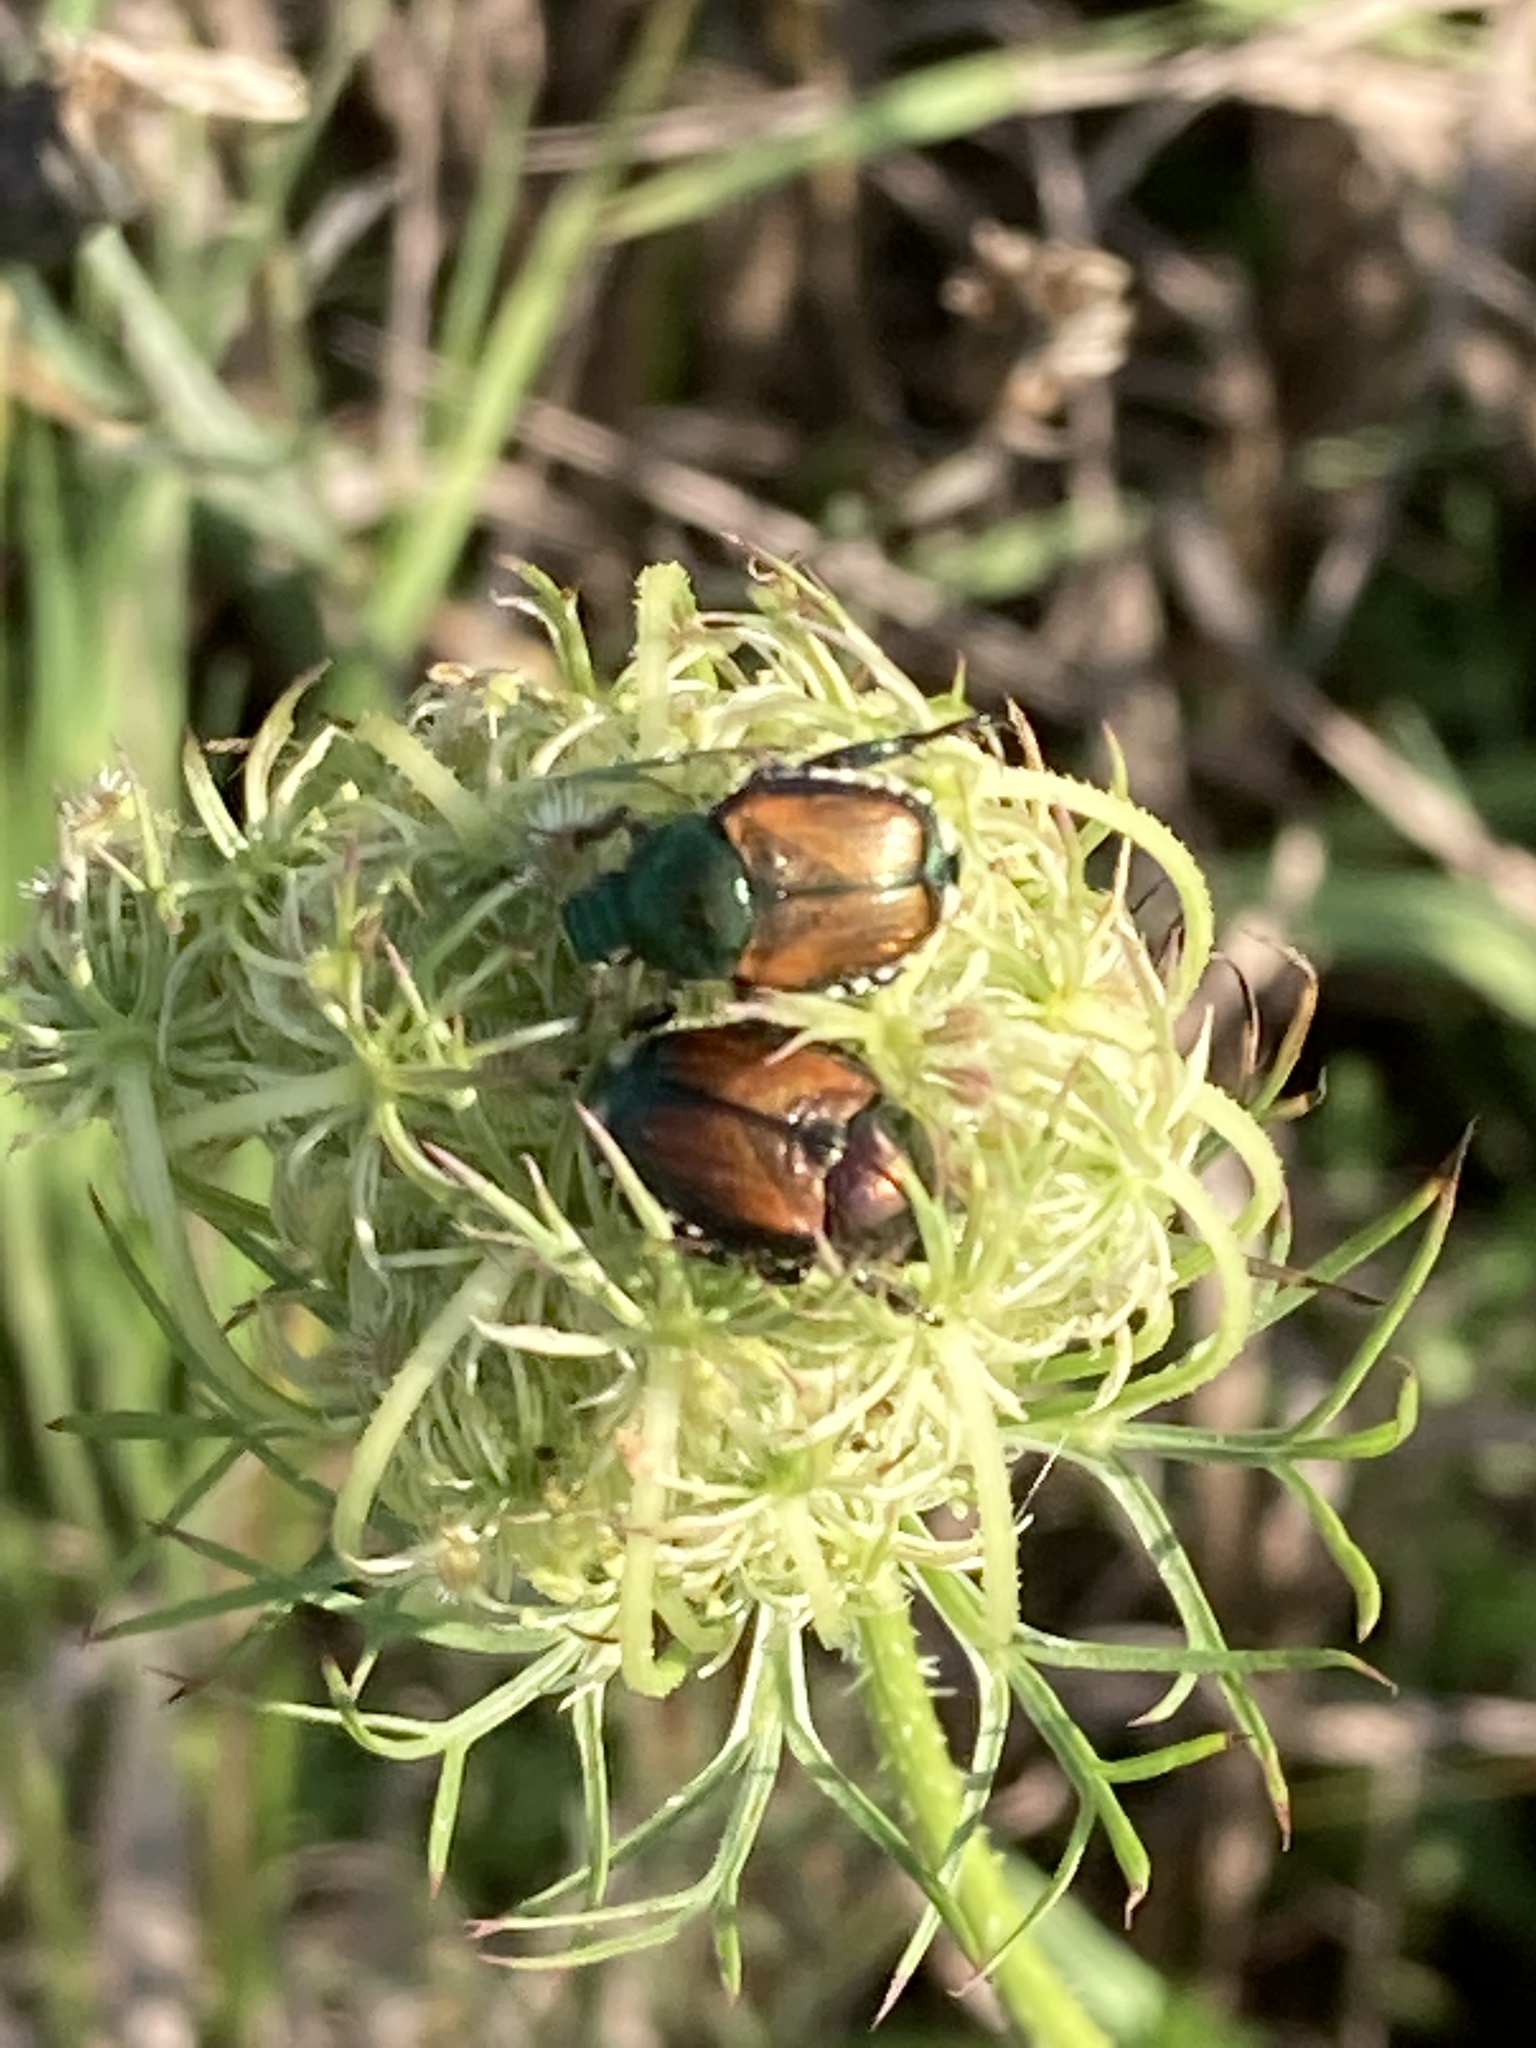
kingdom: Animalia
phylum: Arthropoda
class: Insecta
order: Coleoptera
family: Scarabaeidae
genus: Popillia
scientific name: Popillia japonica
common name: Japanese beetle
